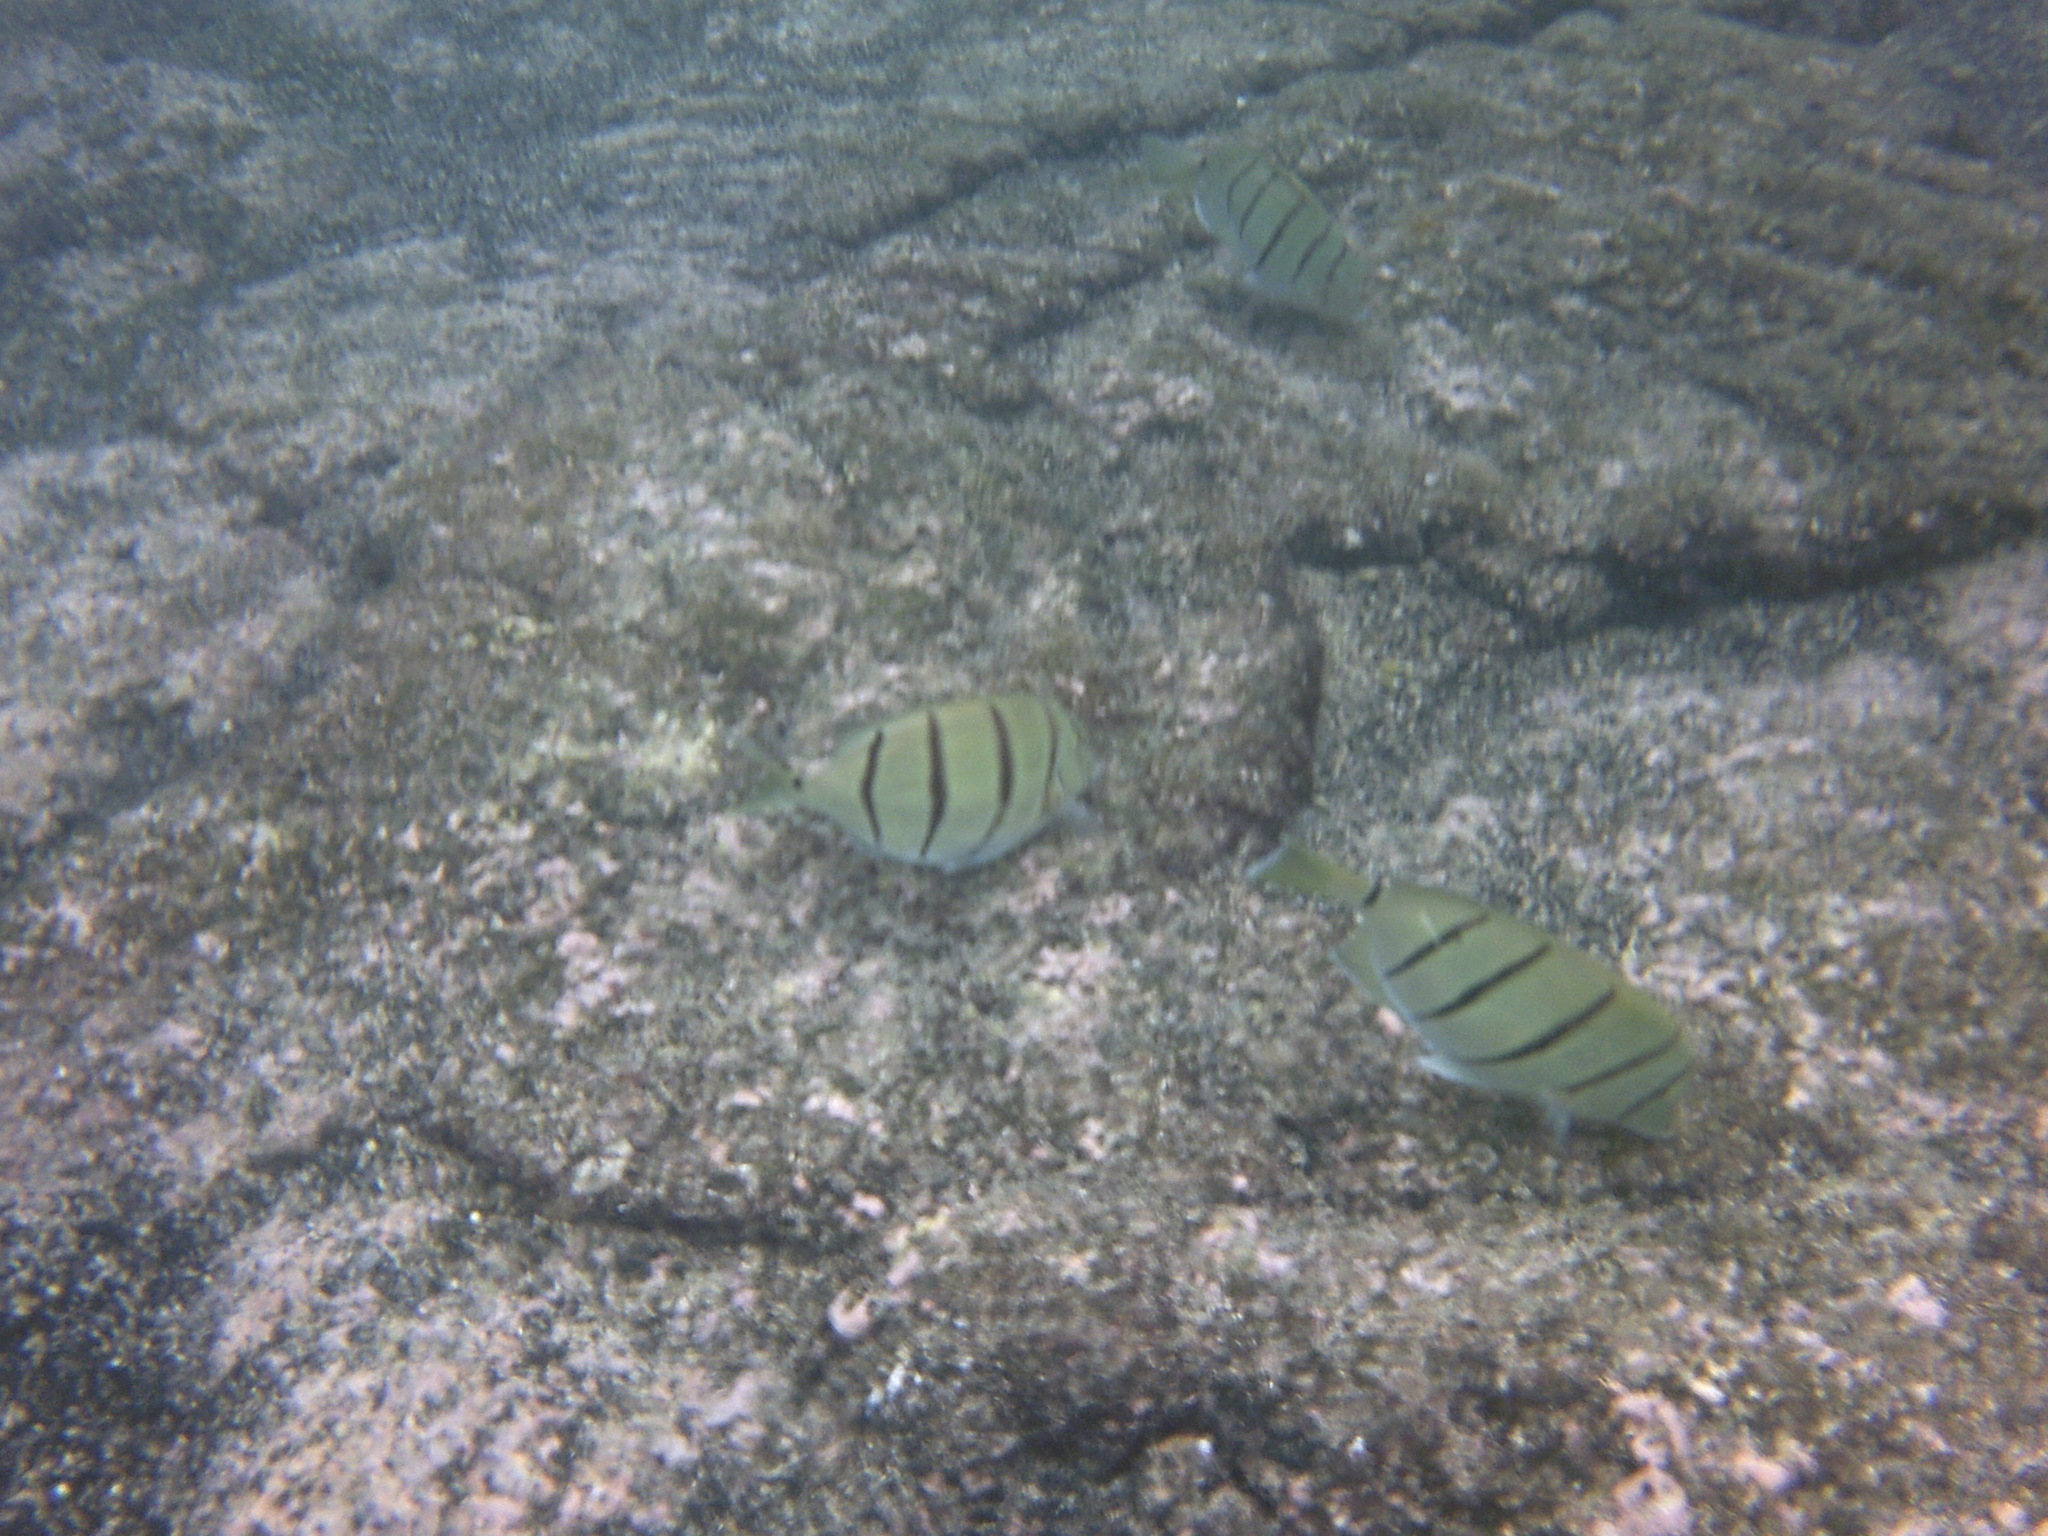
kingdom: Animalia
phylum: Chordata
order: Perciformes
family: Acanthuridae
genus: Acanthurus
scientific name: Acanthurus triostegus
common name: Convict surgeonfish
